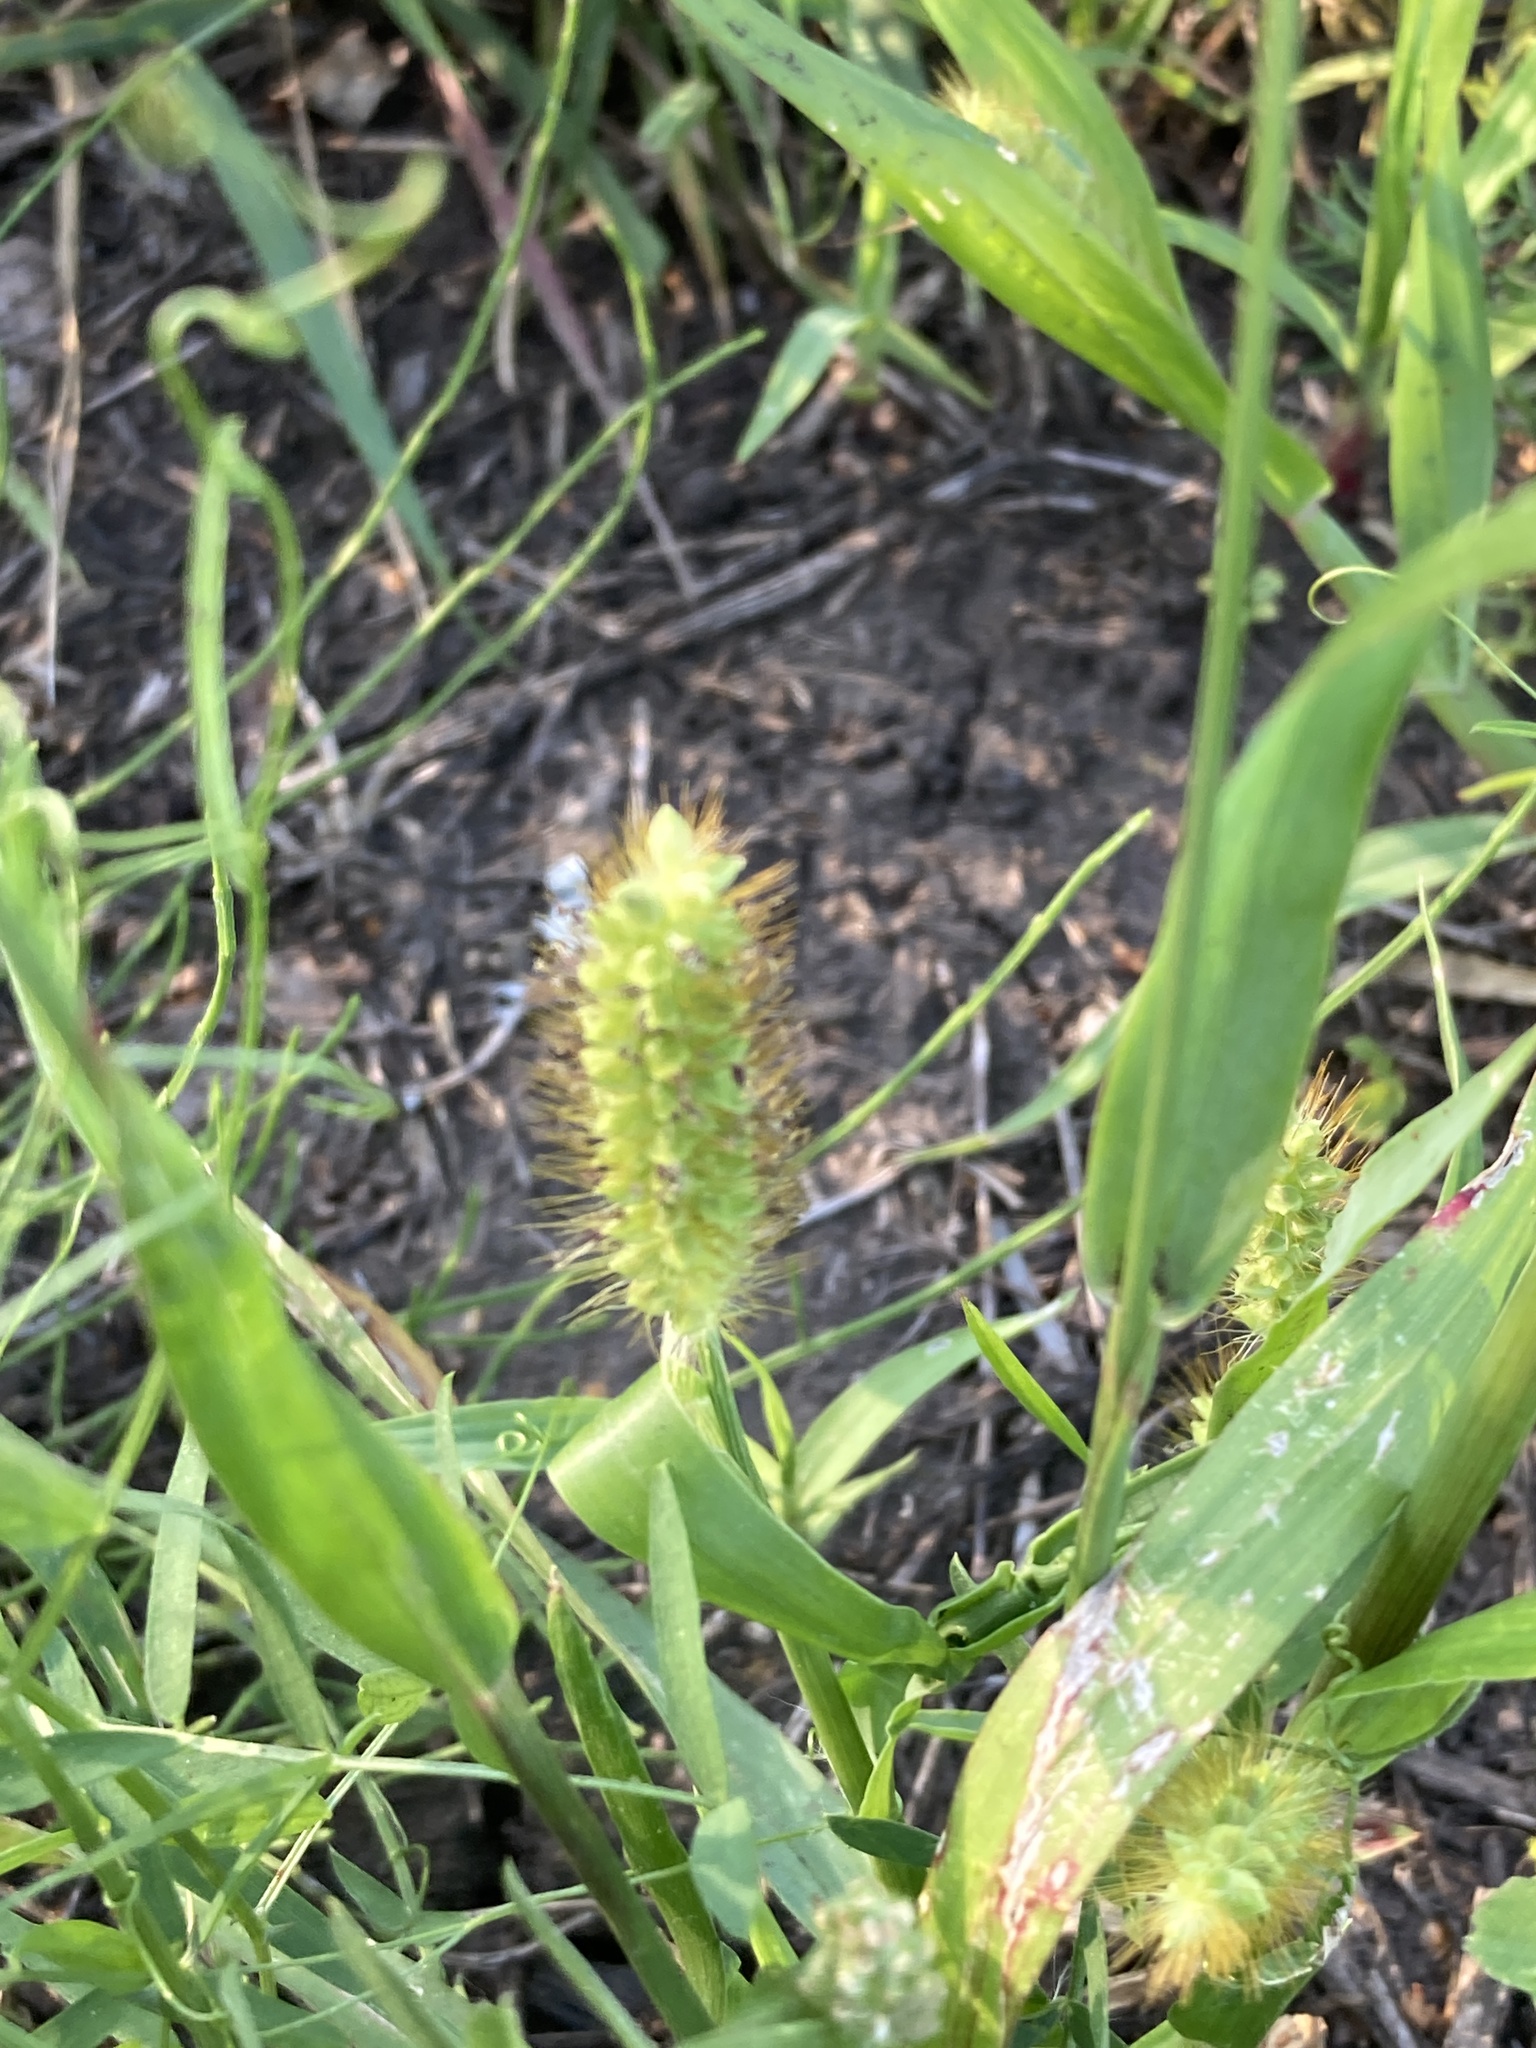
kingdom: Plantae
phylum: Tracheophyta
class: Liliopsida
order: Poales
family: Poaceae
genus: Setaria
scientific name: Setaria pumila
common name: Yellow bristle-grass
